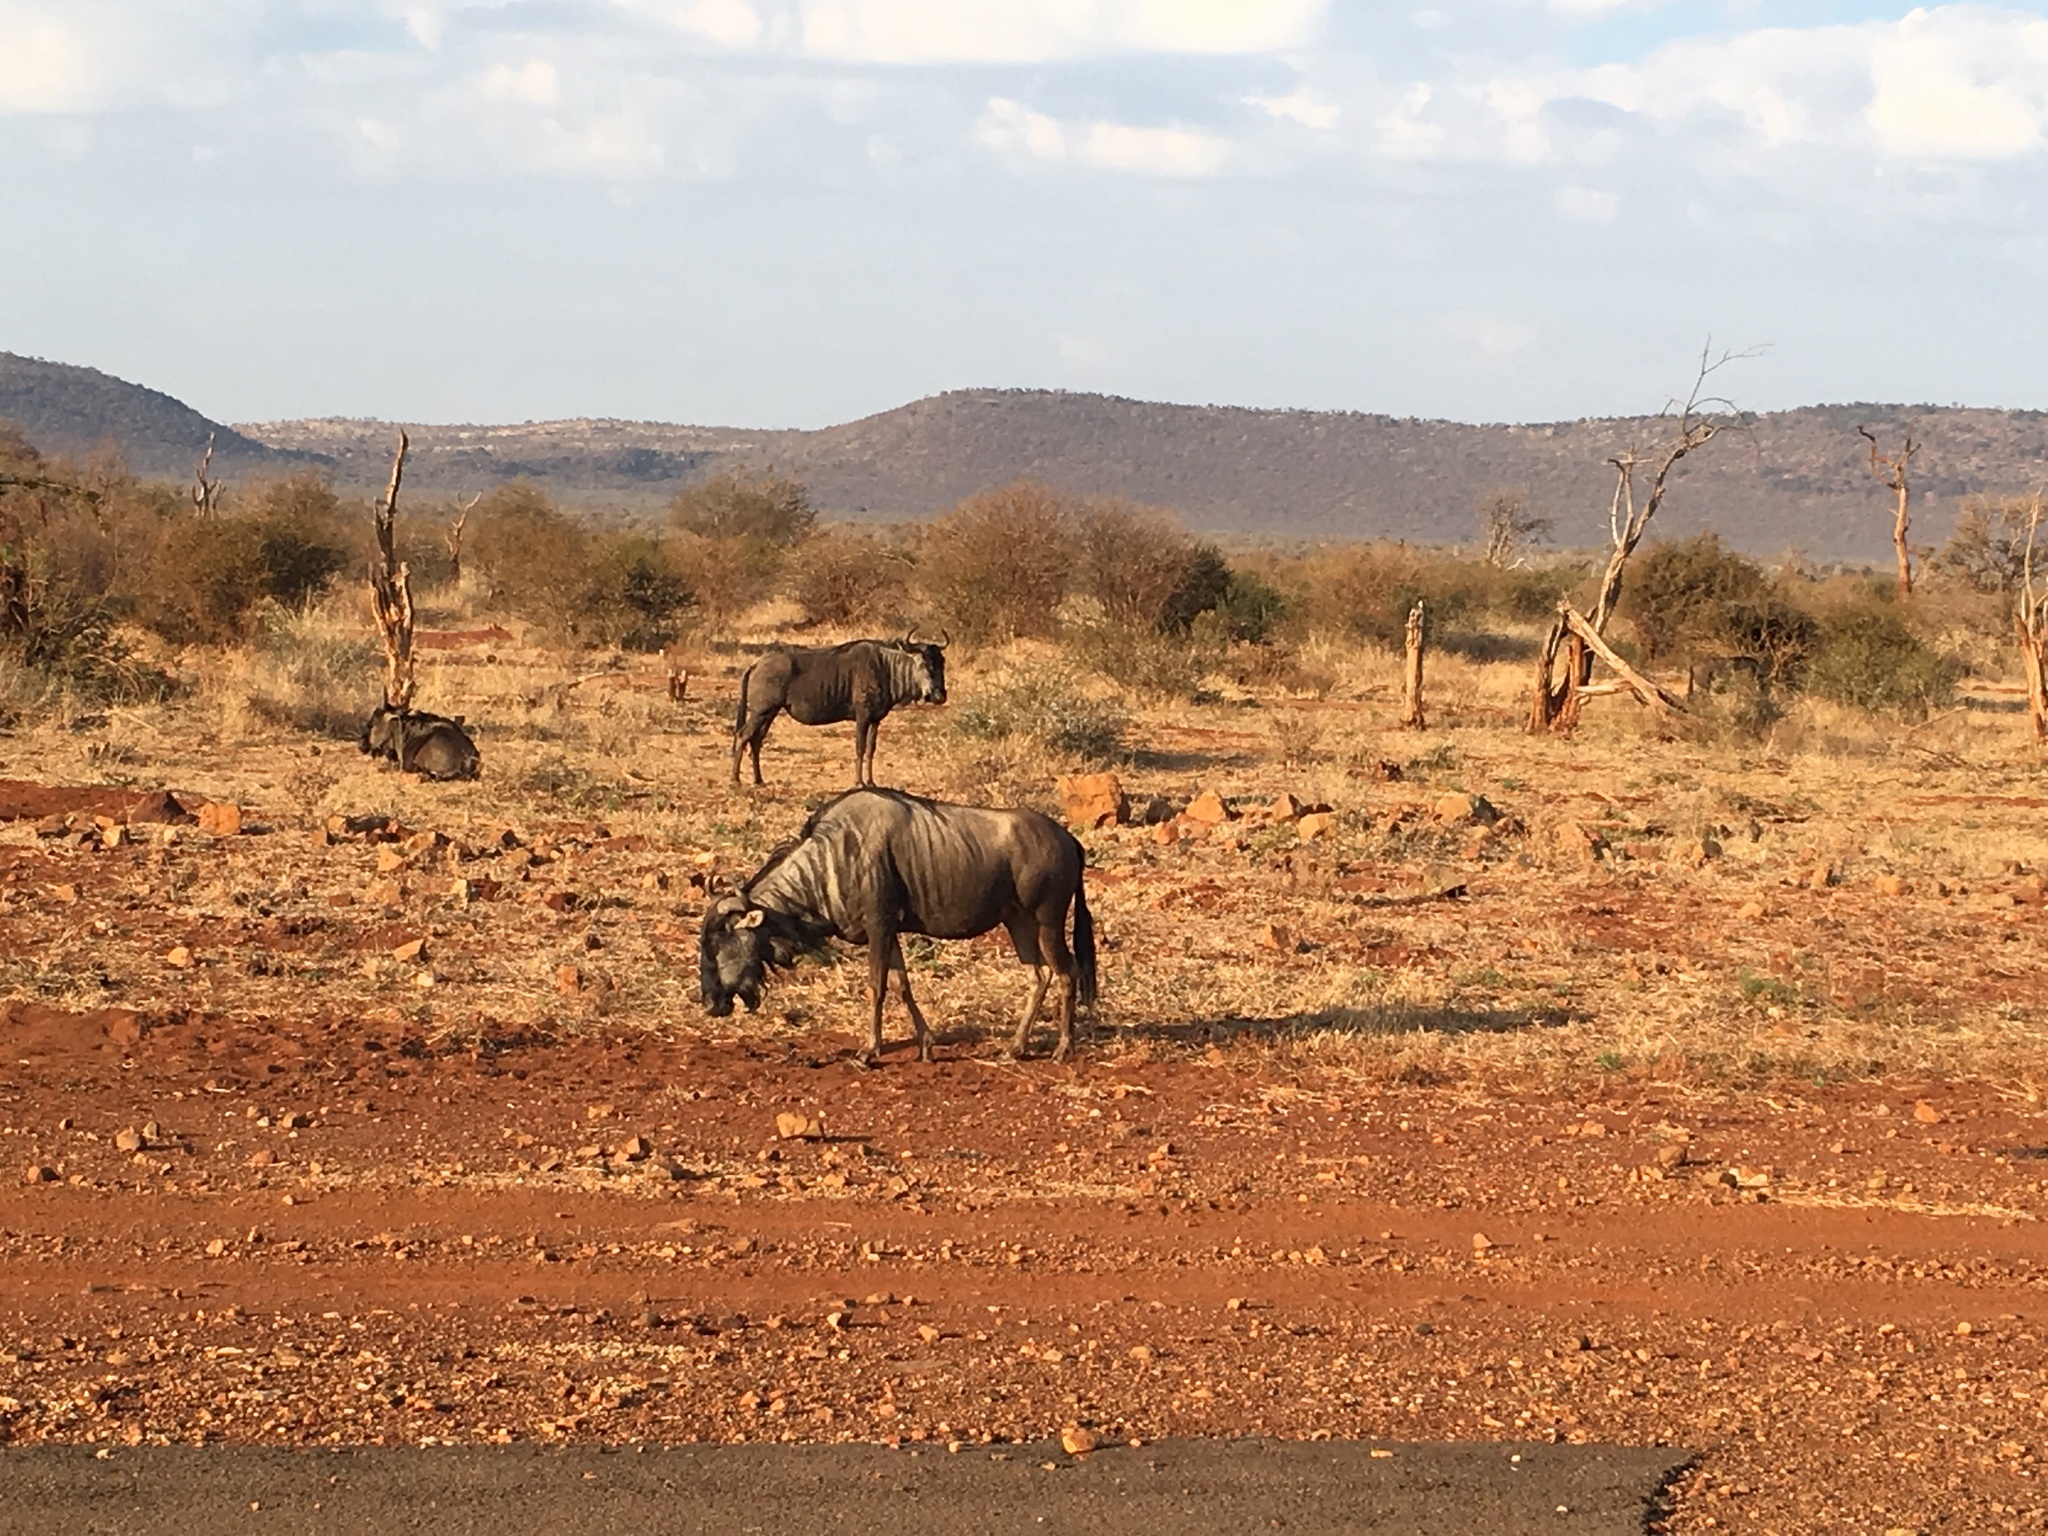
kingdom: Animalia
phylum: Chordata
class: Mammalia
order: Artiodactyla
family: Bovidae
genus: Connochaetes
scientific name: Connochaetes taurinus
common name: Blue wildebeest
